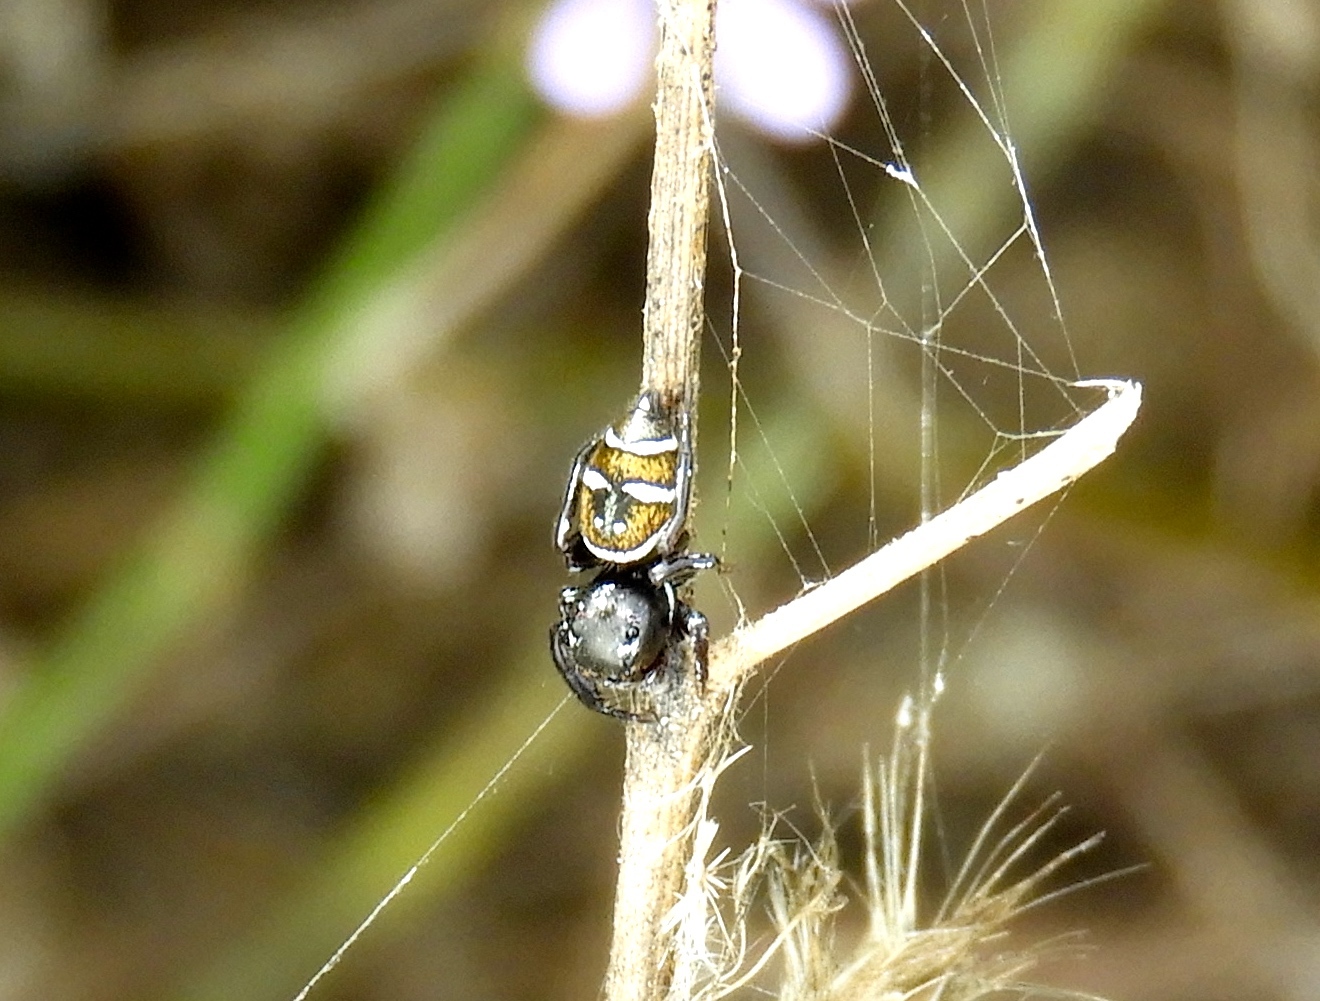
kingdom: Animalia
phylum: Arthropoda
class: Arachnida
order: Araneae
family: Salticidae
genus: Sassacus
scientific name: Sassacus
